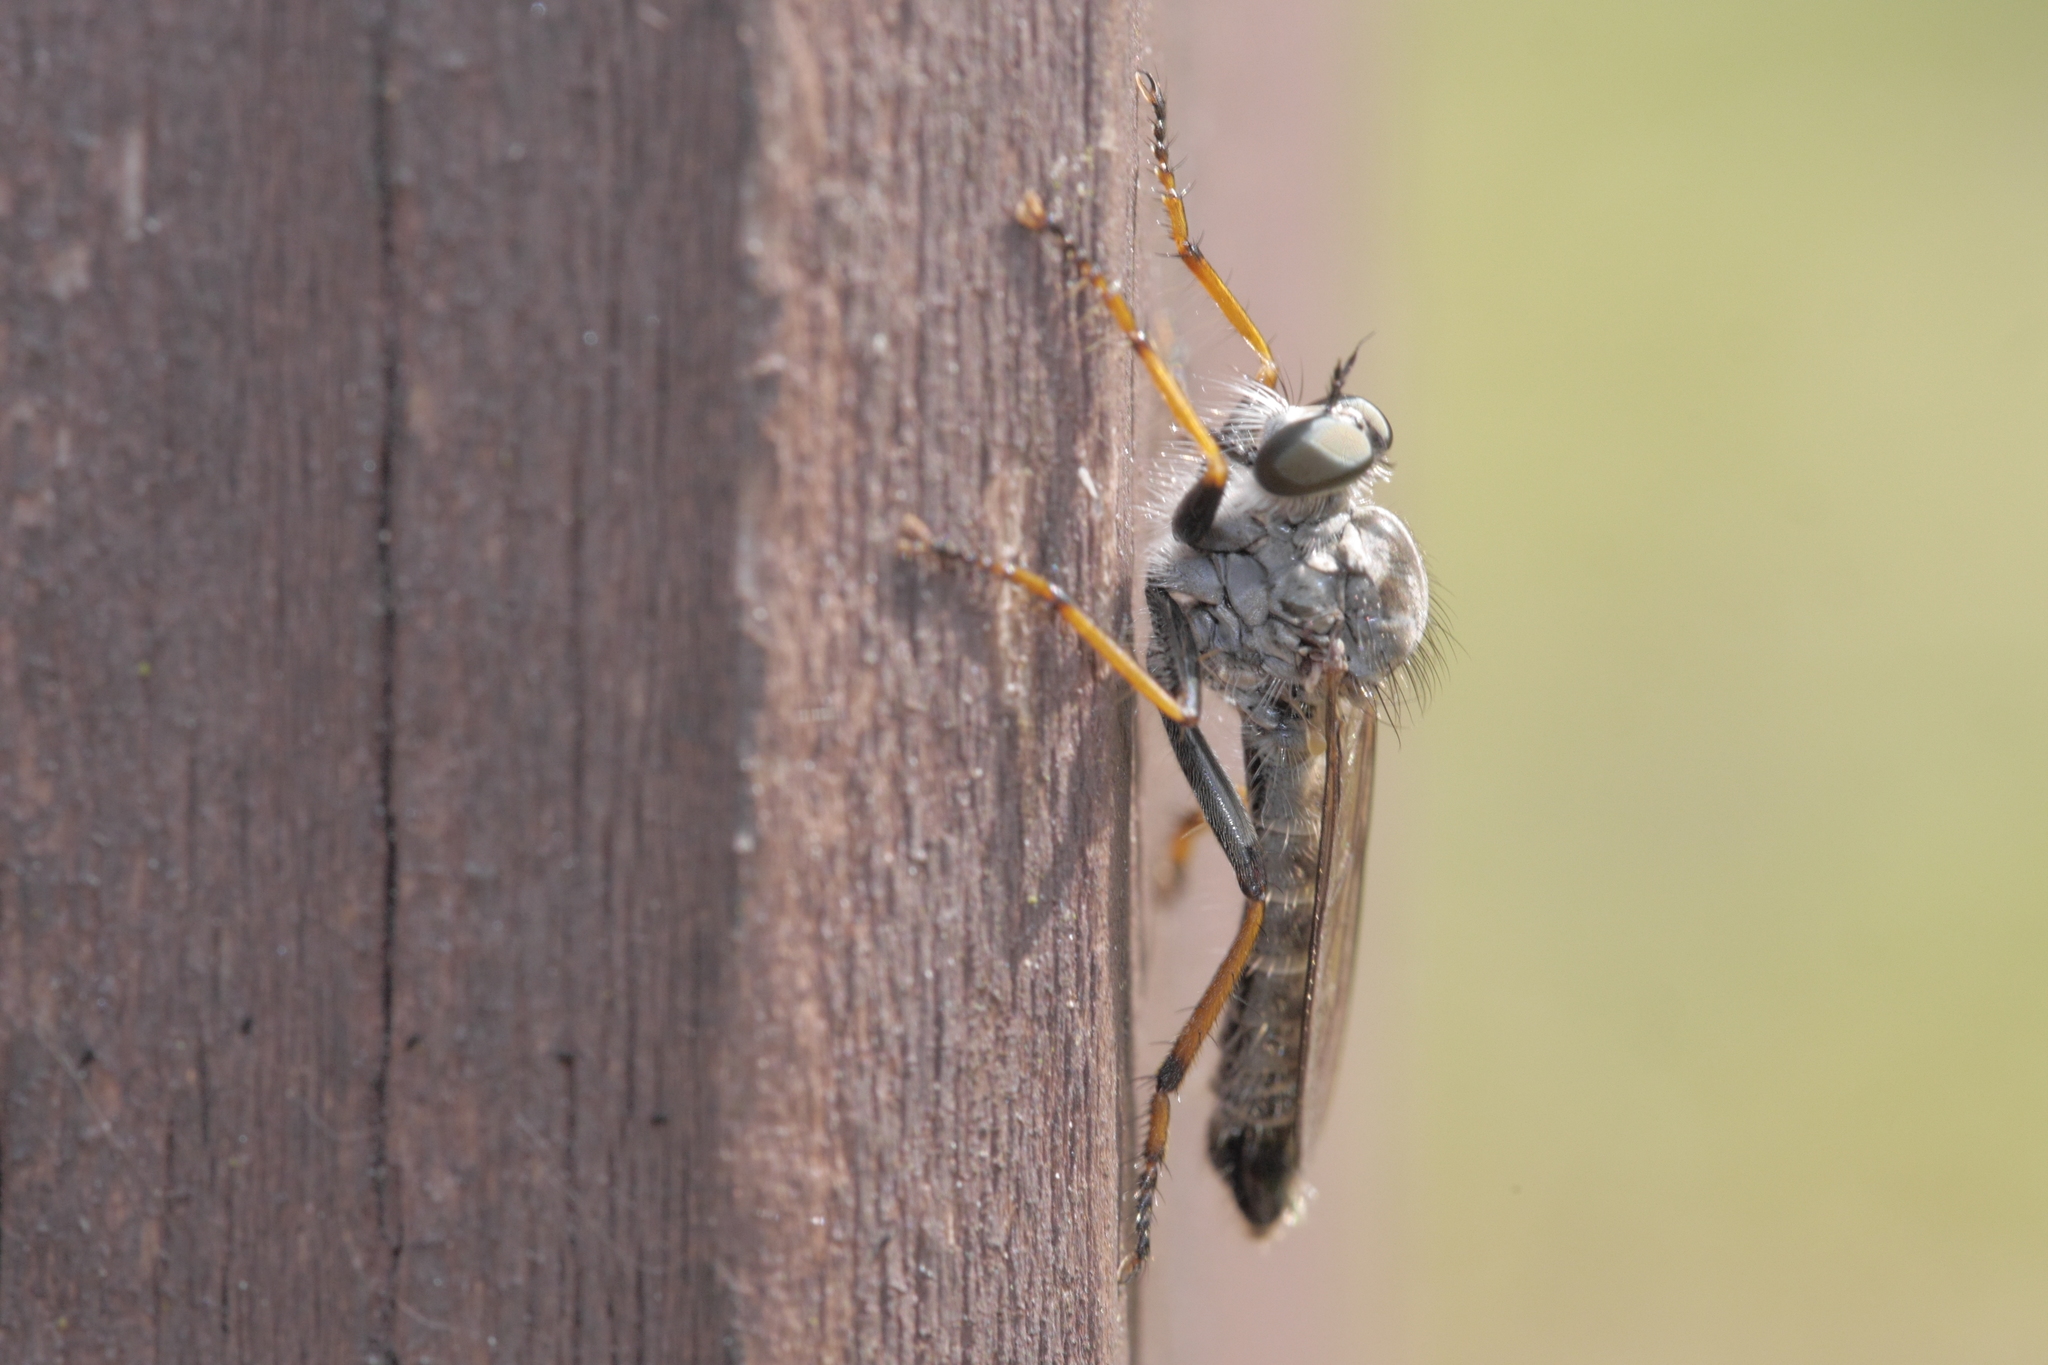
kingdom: Animalia
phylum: Arthropoda
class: Insecta
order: Diptera
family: Asilidae
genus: Paritamus
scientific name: Paritamus geniculatus
